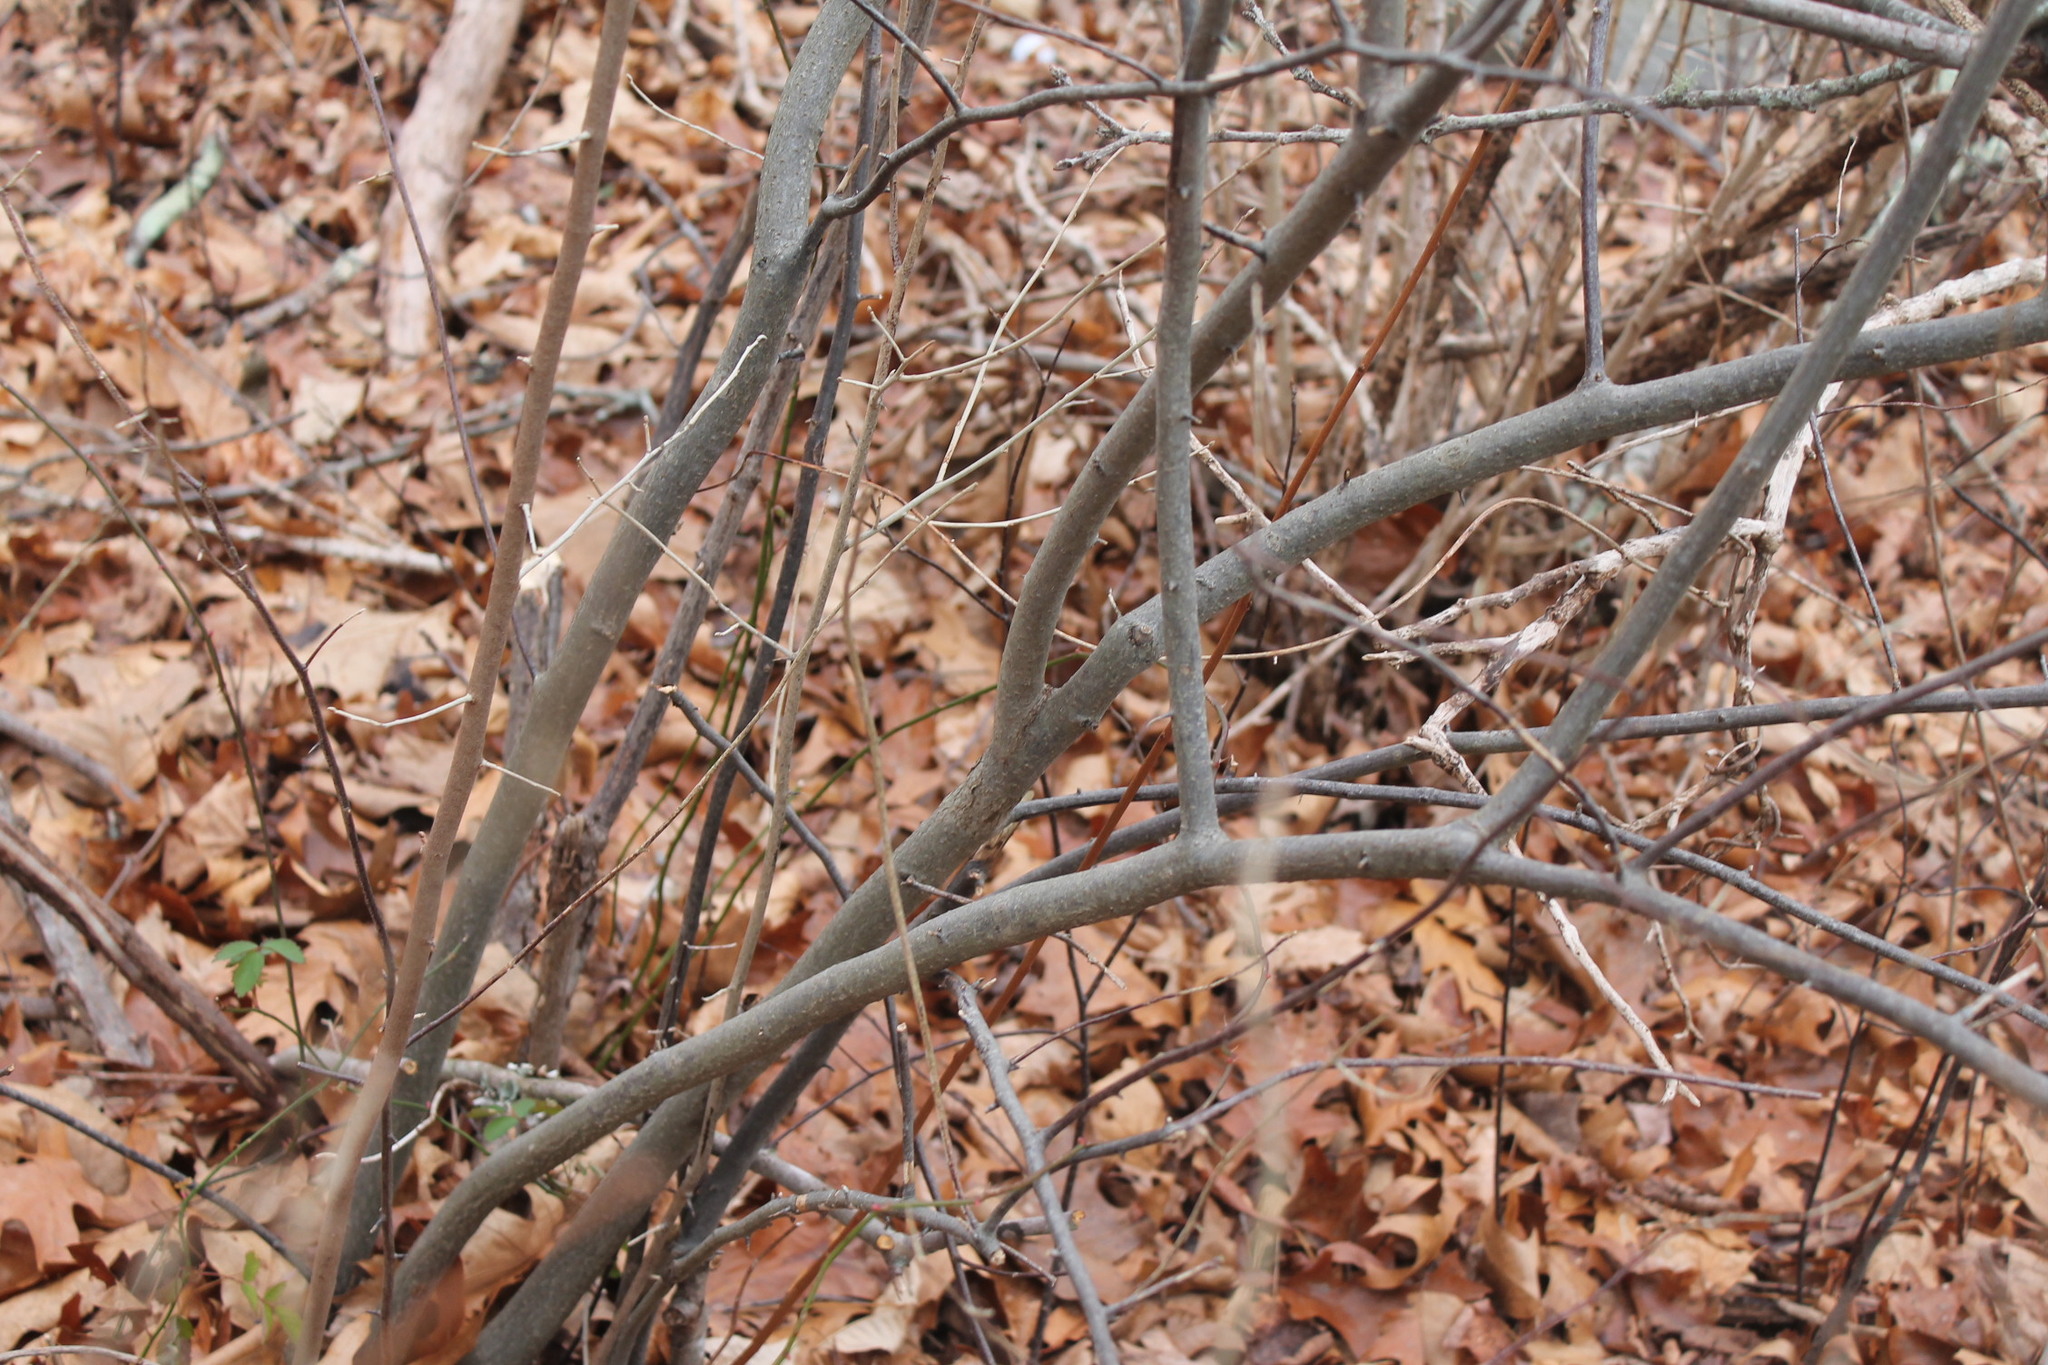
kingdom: Plantae
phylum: Tracheophyta
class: Magnoliopsida
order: Rosales
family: Elaeagnaceae
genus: Elaeagnus
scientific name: Elaeagnus umbellata
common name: Autumn olive
